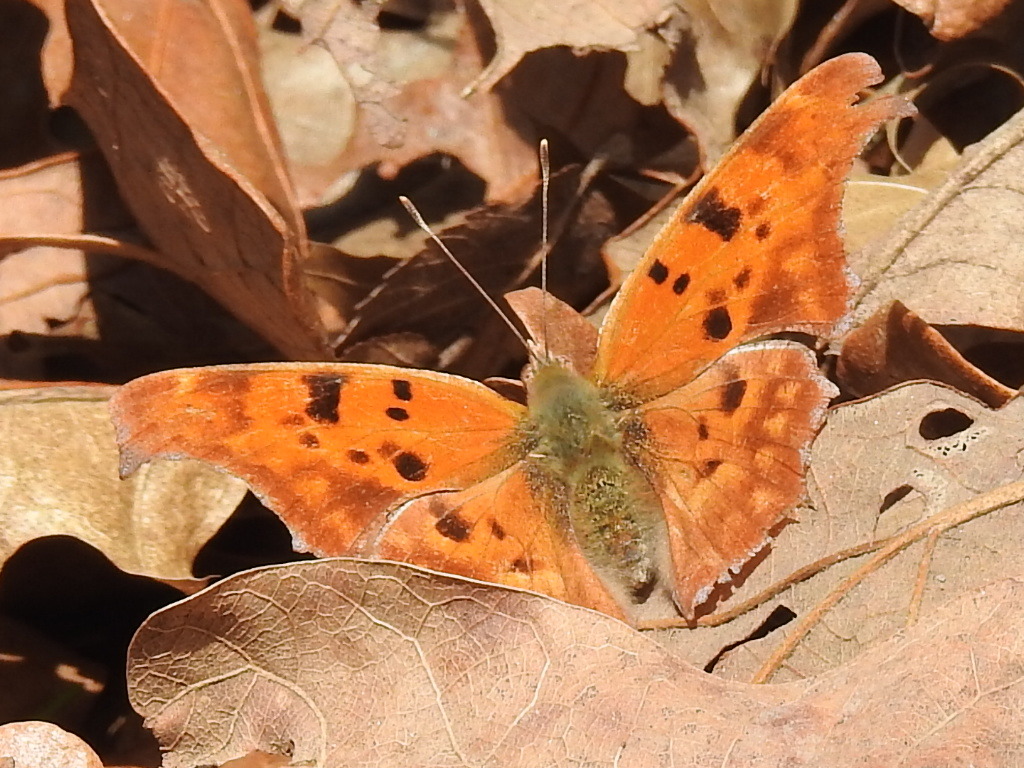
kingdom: Animalia
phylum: Arthropoda
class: Insecta
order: Lepidoptera
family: Nymphalidae
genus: Polygonia
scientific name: Polygonia interrogationis
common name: Question mark
